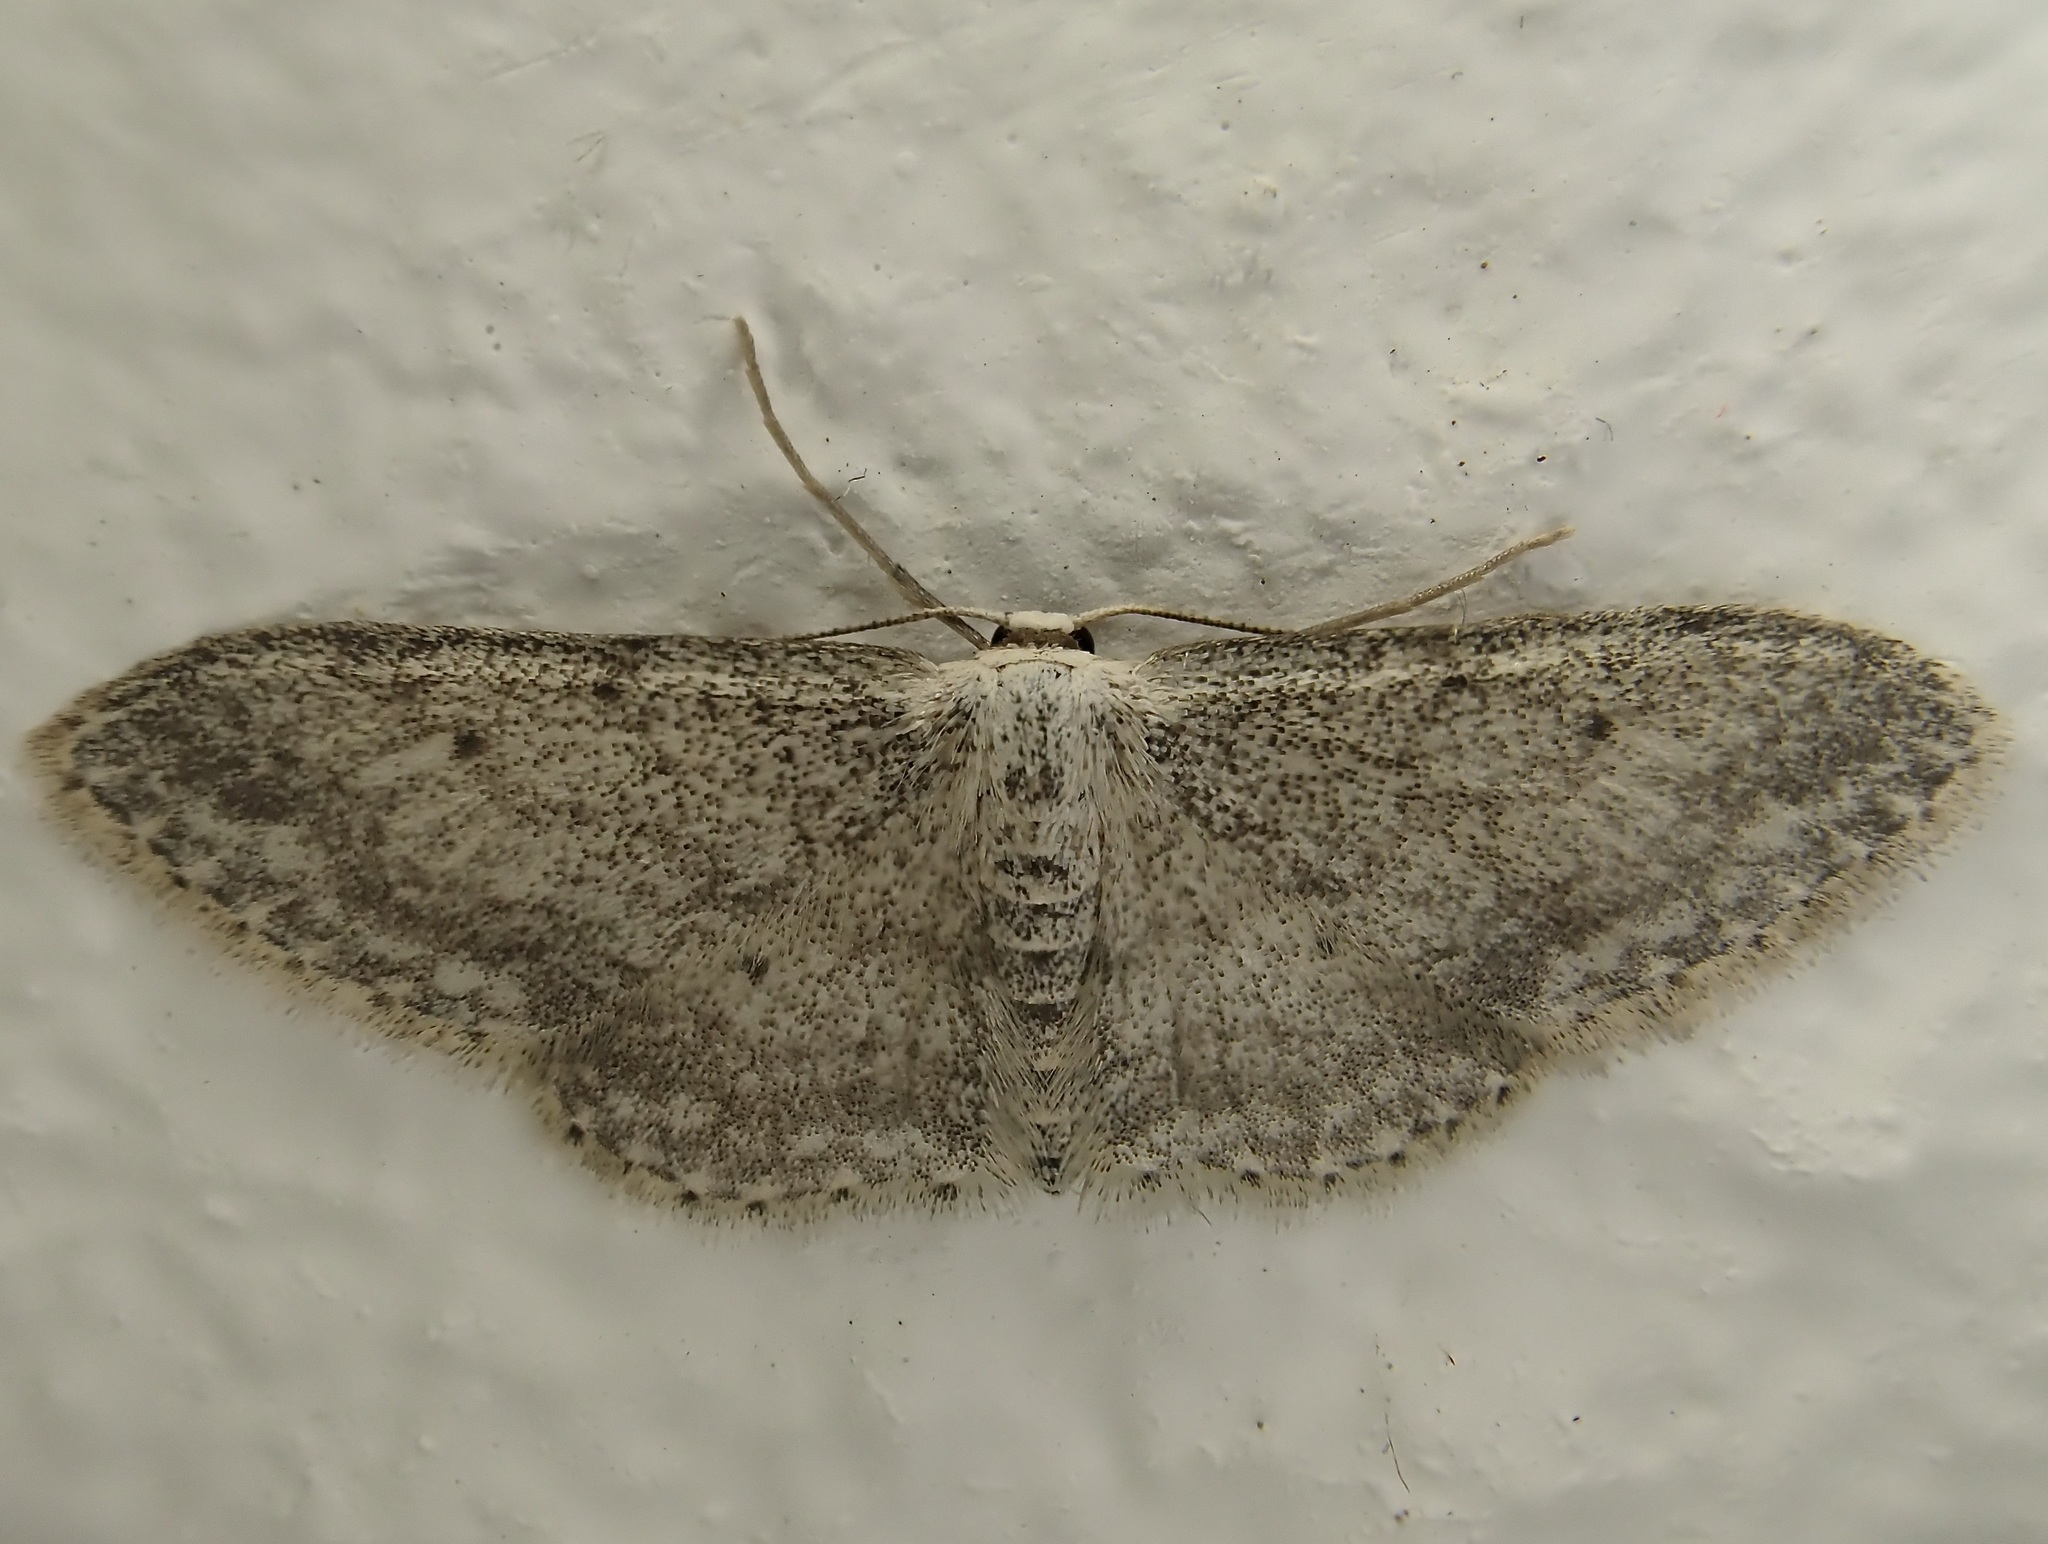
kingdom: Animalia
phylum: Arthropoda
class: Insecta
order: Lepidoptera
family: Geometridae
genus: Idaea
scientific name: Idaea seriata
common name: Small dusty wave
